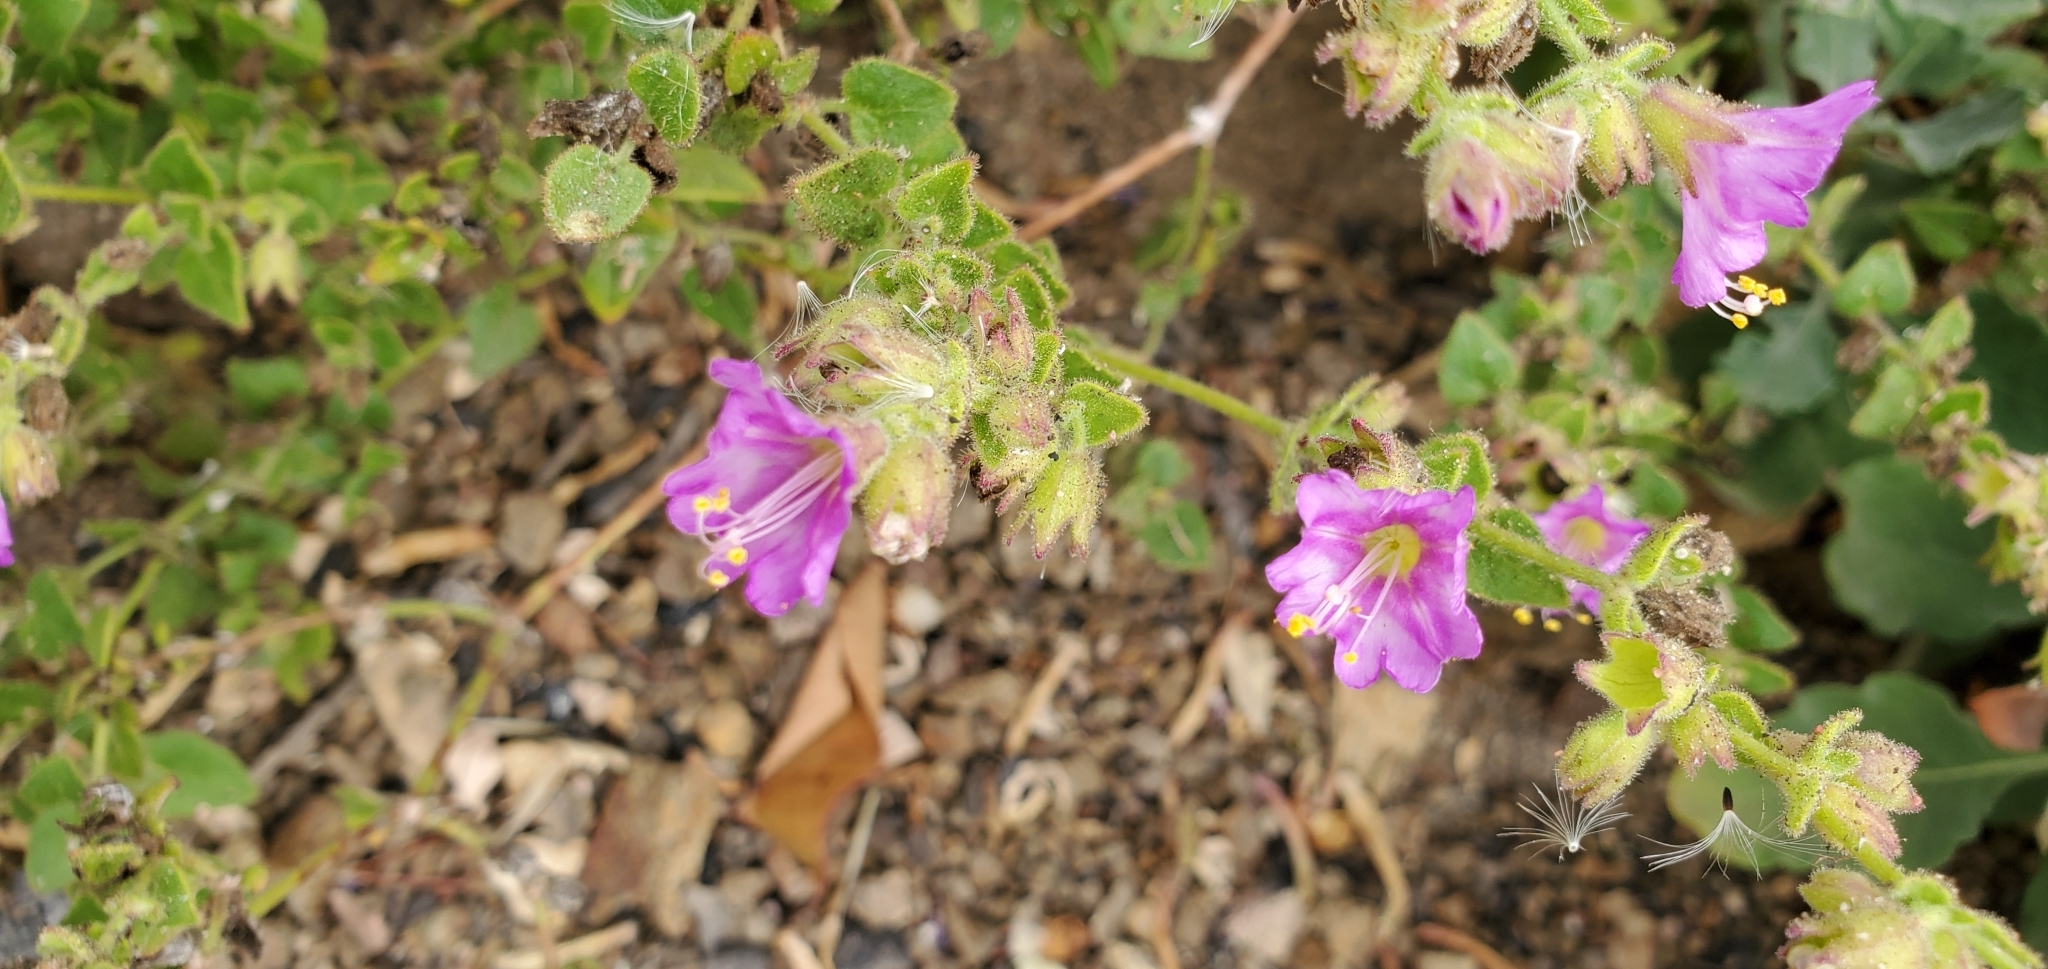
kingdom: Plantae
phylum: Tracheophyta
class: Magnoliopsida
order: Caryophyllales
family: Nyctaginaceae
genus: Mirabilis
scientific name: Mirabilis laevis
